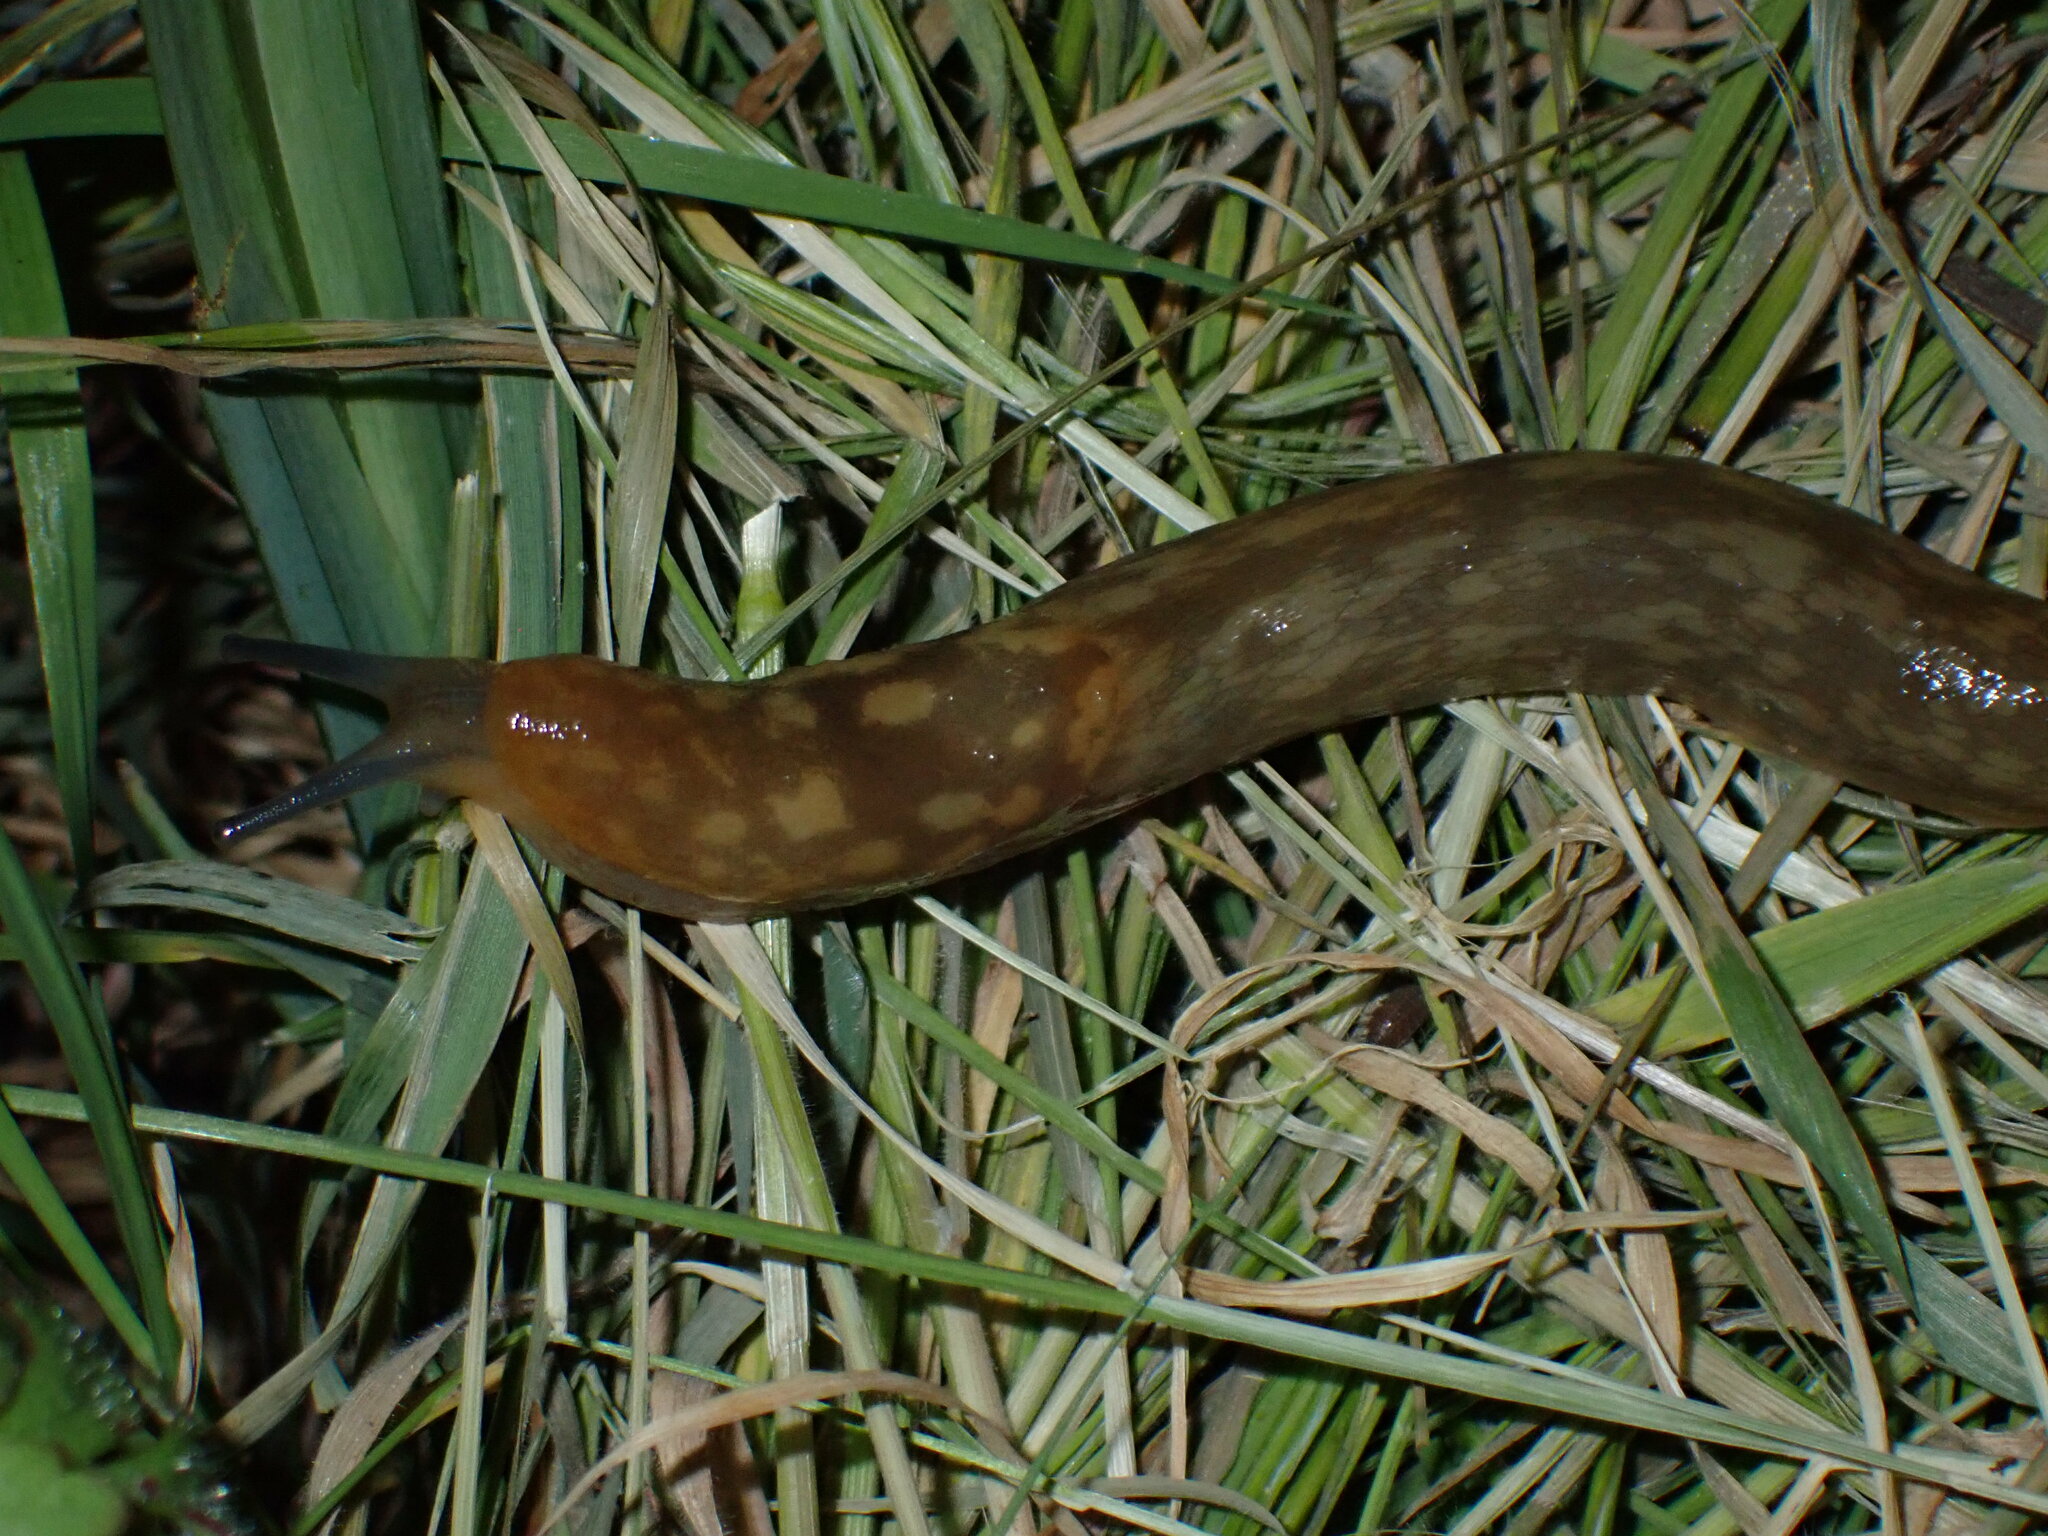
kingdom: Animalia
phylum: Mollusca
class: Gastropoda
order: Stylommatophora
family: Limacidae
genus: Limacus
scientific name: Limacus maculatus
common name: Irish yellow slug
